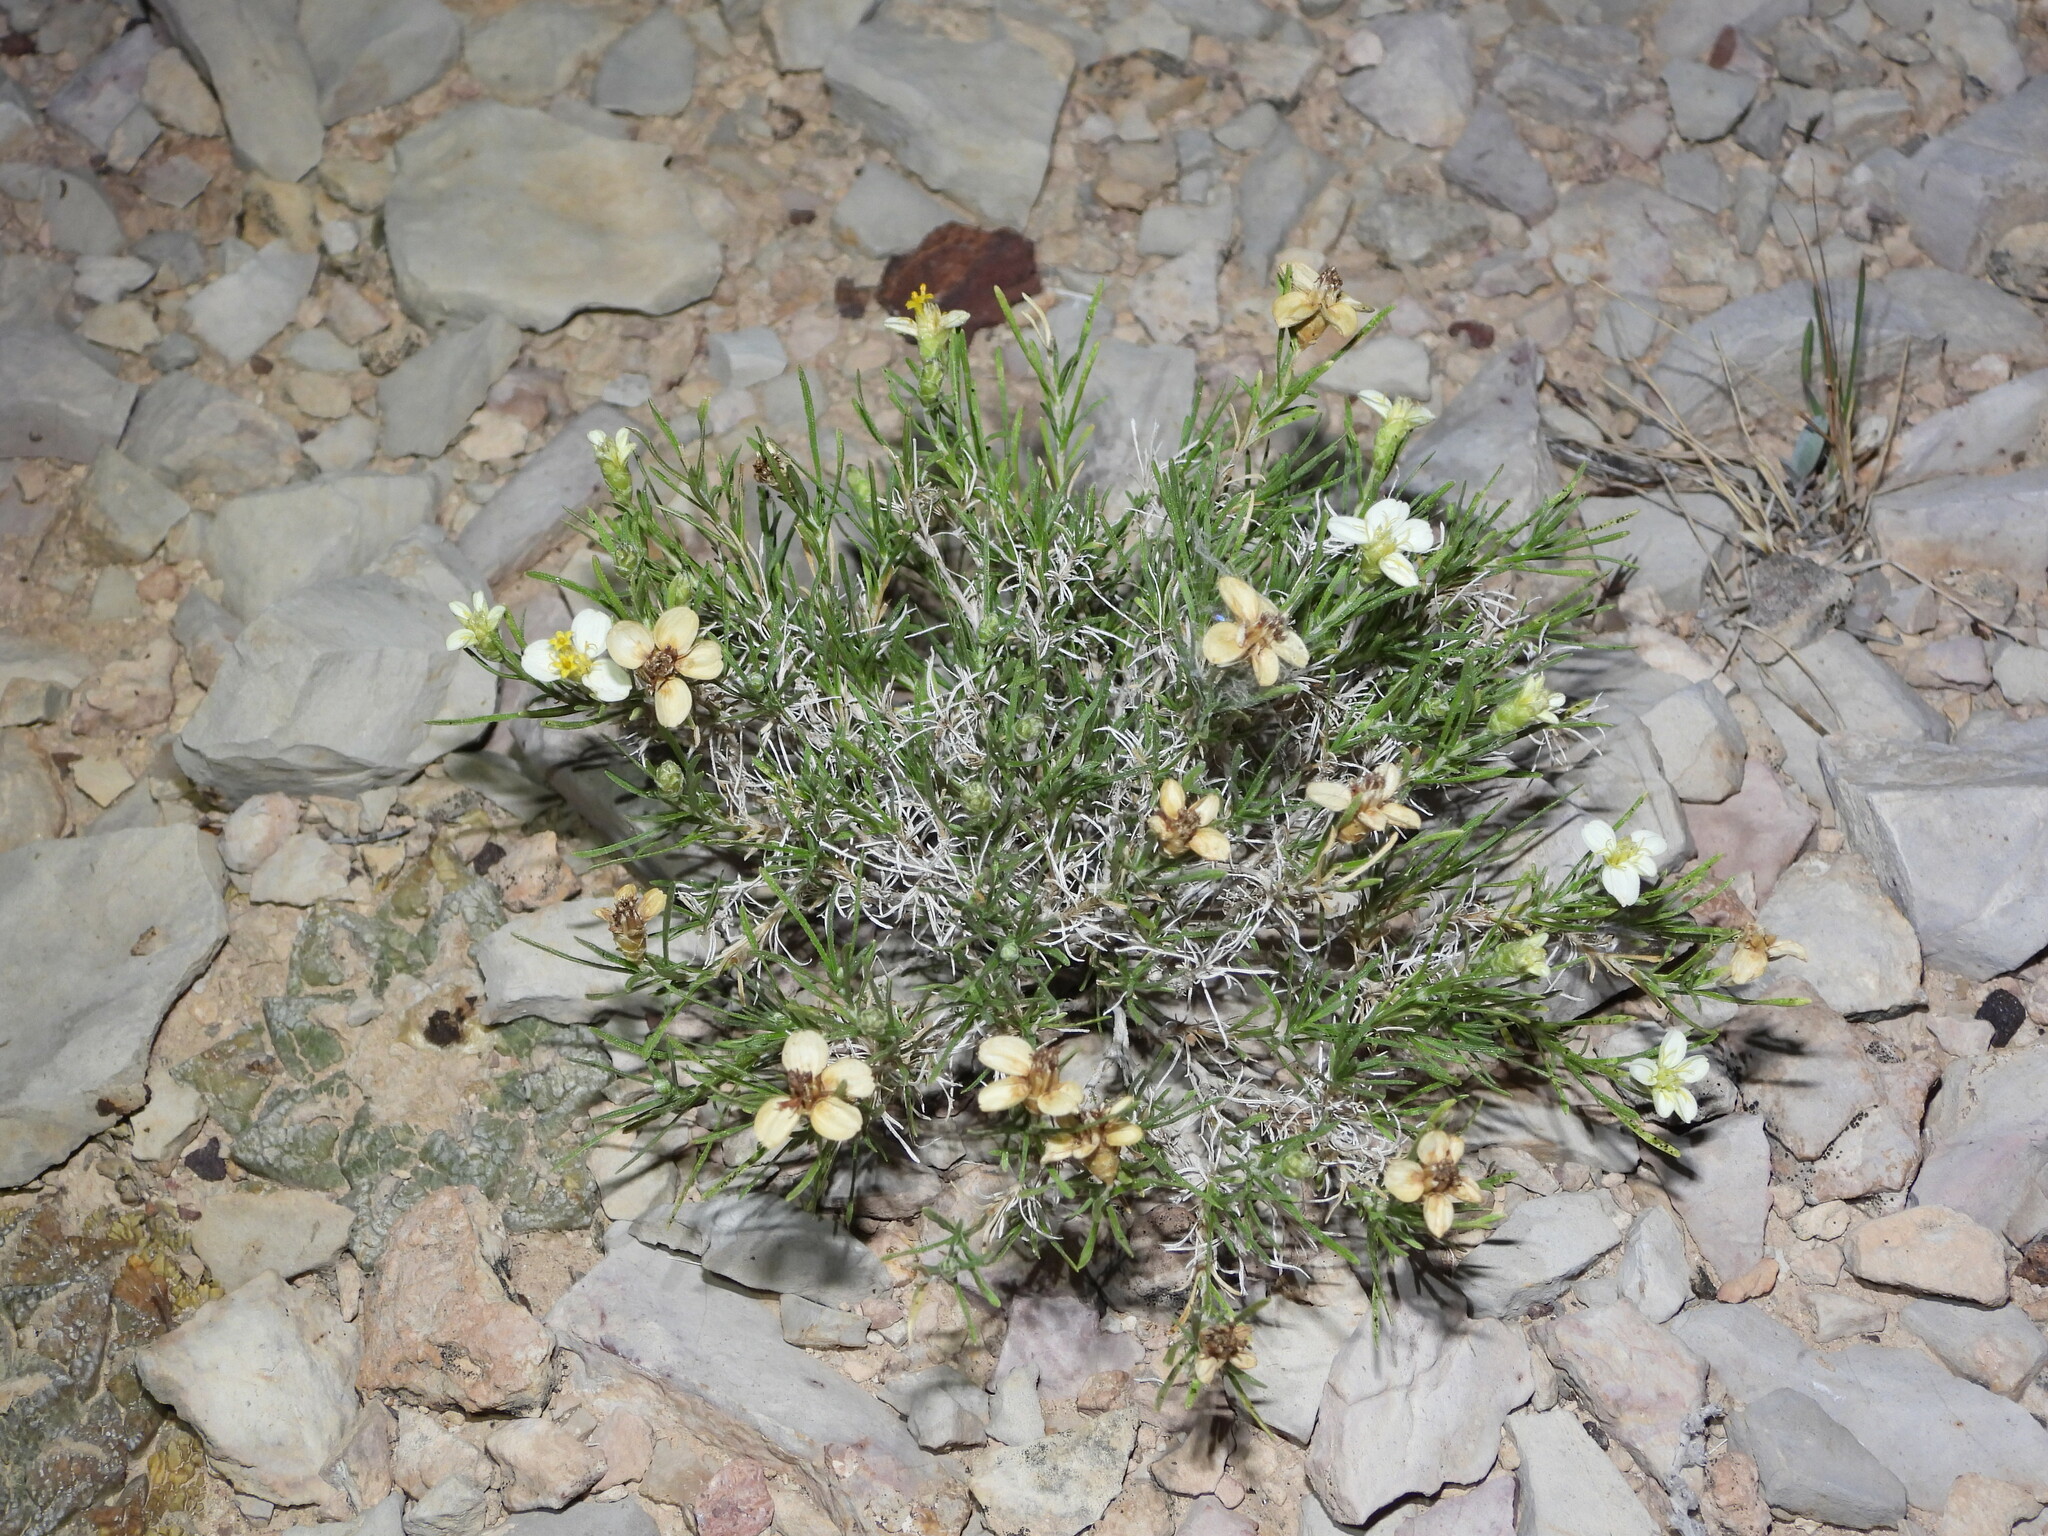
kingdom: Plantae
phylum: Tracheophyta
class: Magnoliopsida
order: Asterales
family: Asteraceae
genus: Zinnia
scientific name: Zinnia acerosa
